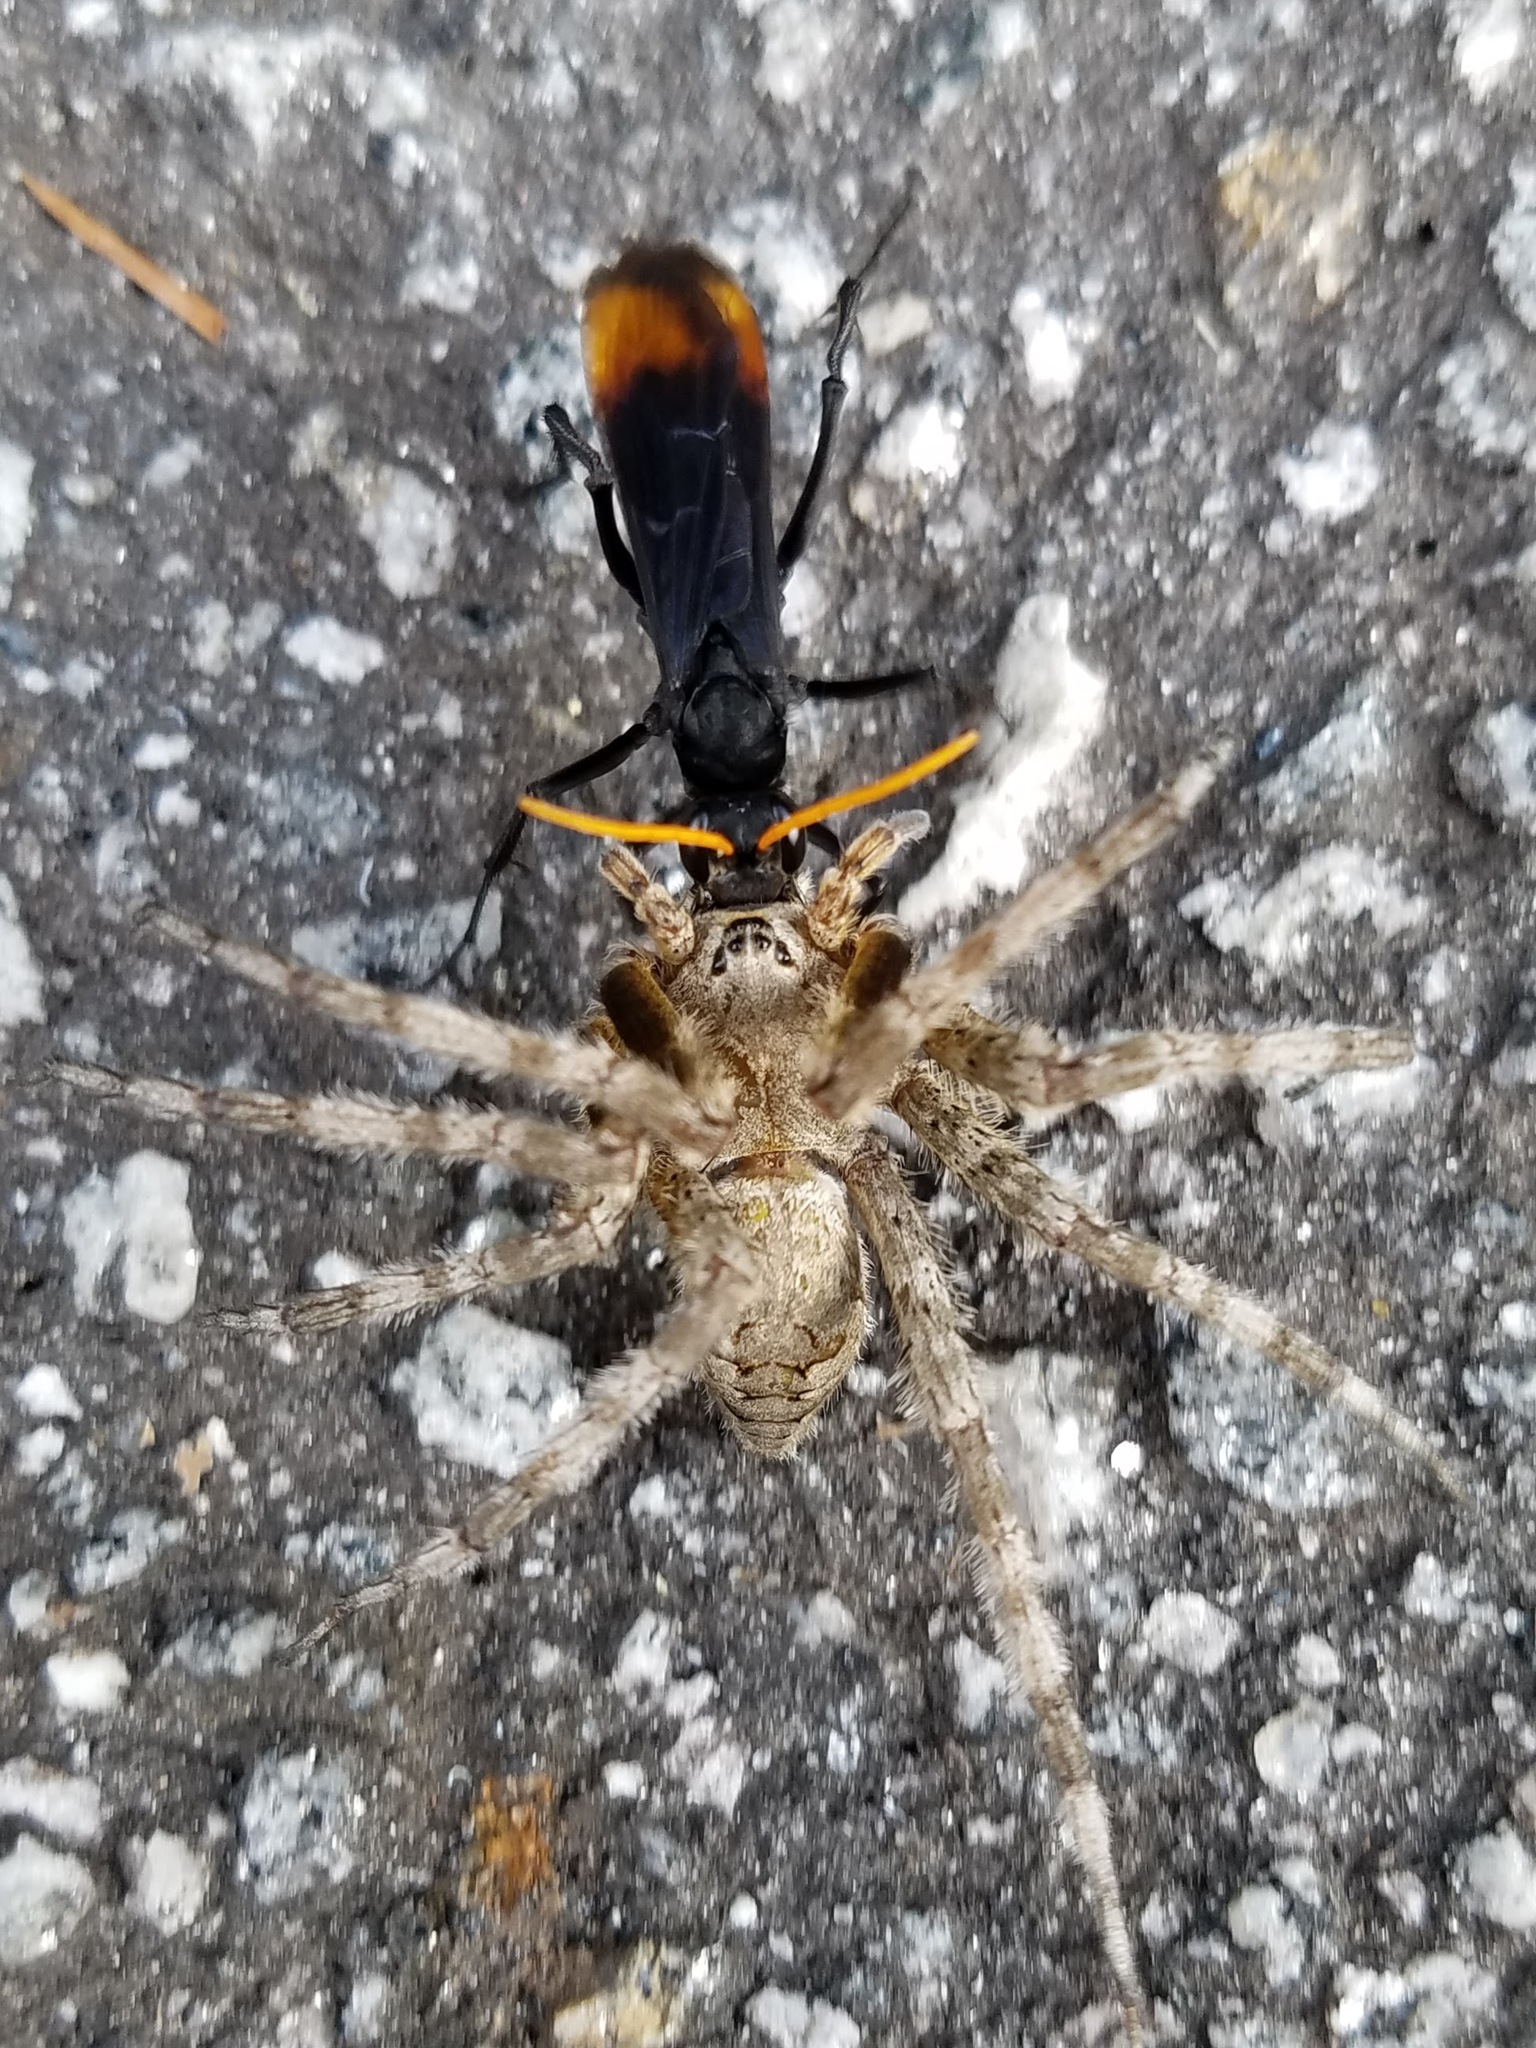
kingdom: Animalia
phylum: Arthropoda
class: Insecta
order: Hymenoptera
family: Pompilidae
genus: Entypus
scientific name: Entypus unifasciatus
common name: Eastern tawny-horned spider wasp
